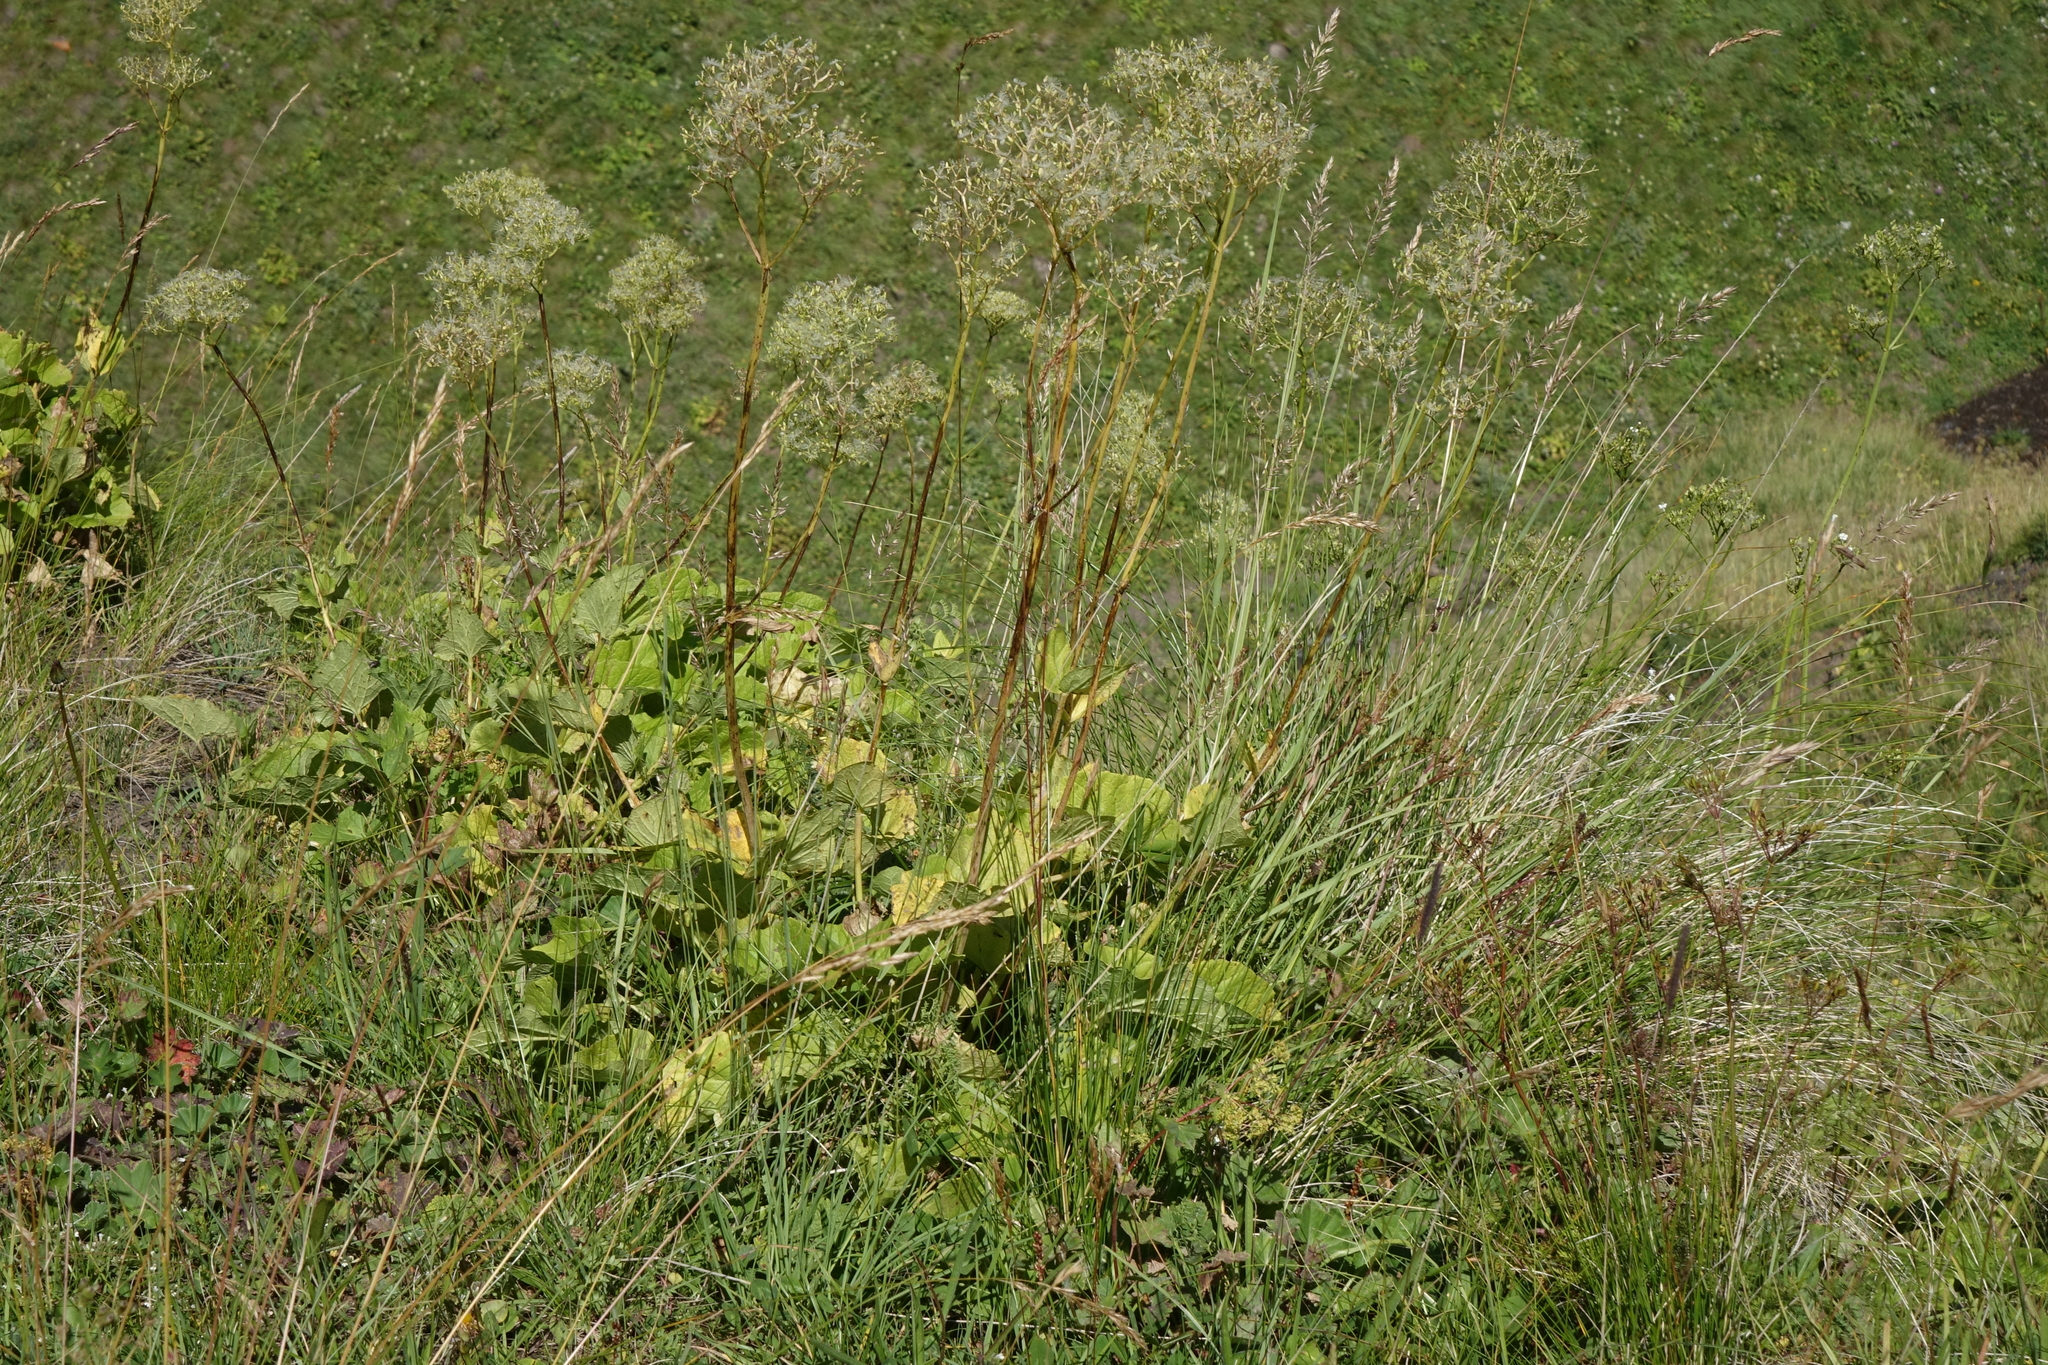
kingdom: Plantae
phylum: Tracheophyta
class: Magnoliopsida
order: Dipsacales
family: Caprifoliaceae
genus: Valeriana
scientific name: Valeriana alliariifolia
